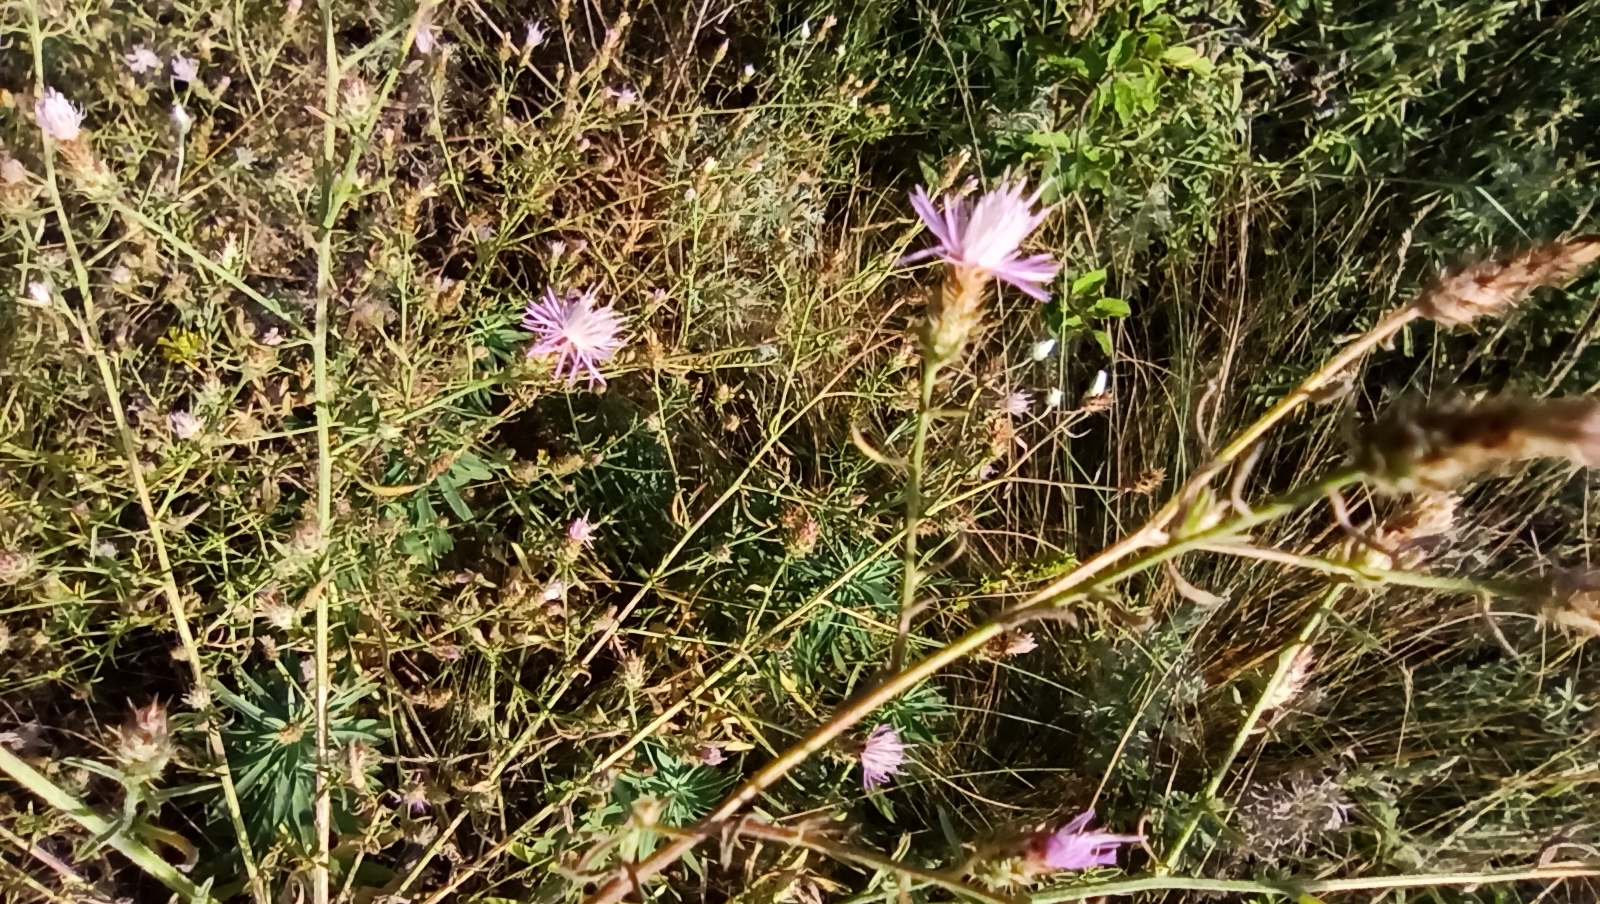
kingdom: Plantae
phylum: Tracheophyta
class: Magnoliopsida
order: Asterales
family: Asteraceae
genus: Centaurea
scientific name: Centaurea diffusa
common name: Diffuse knapweed
